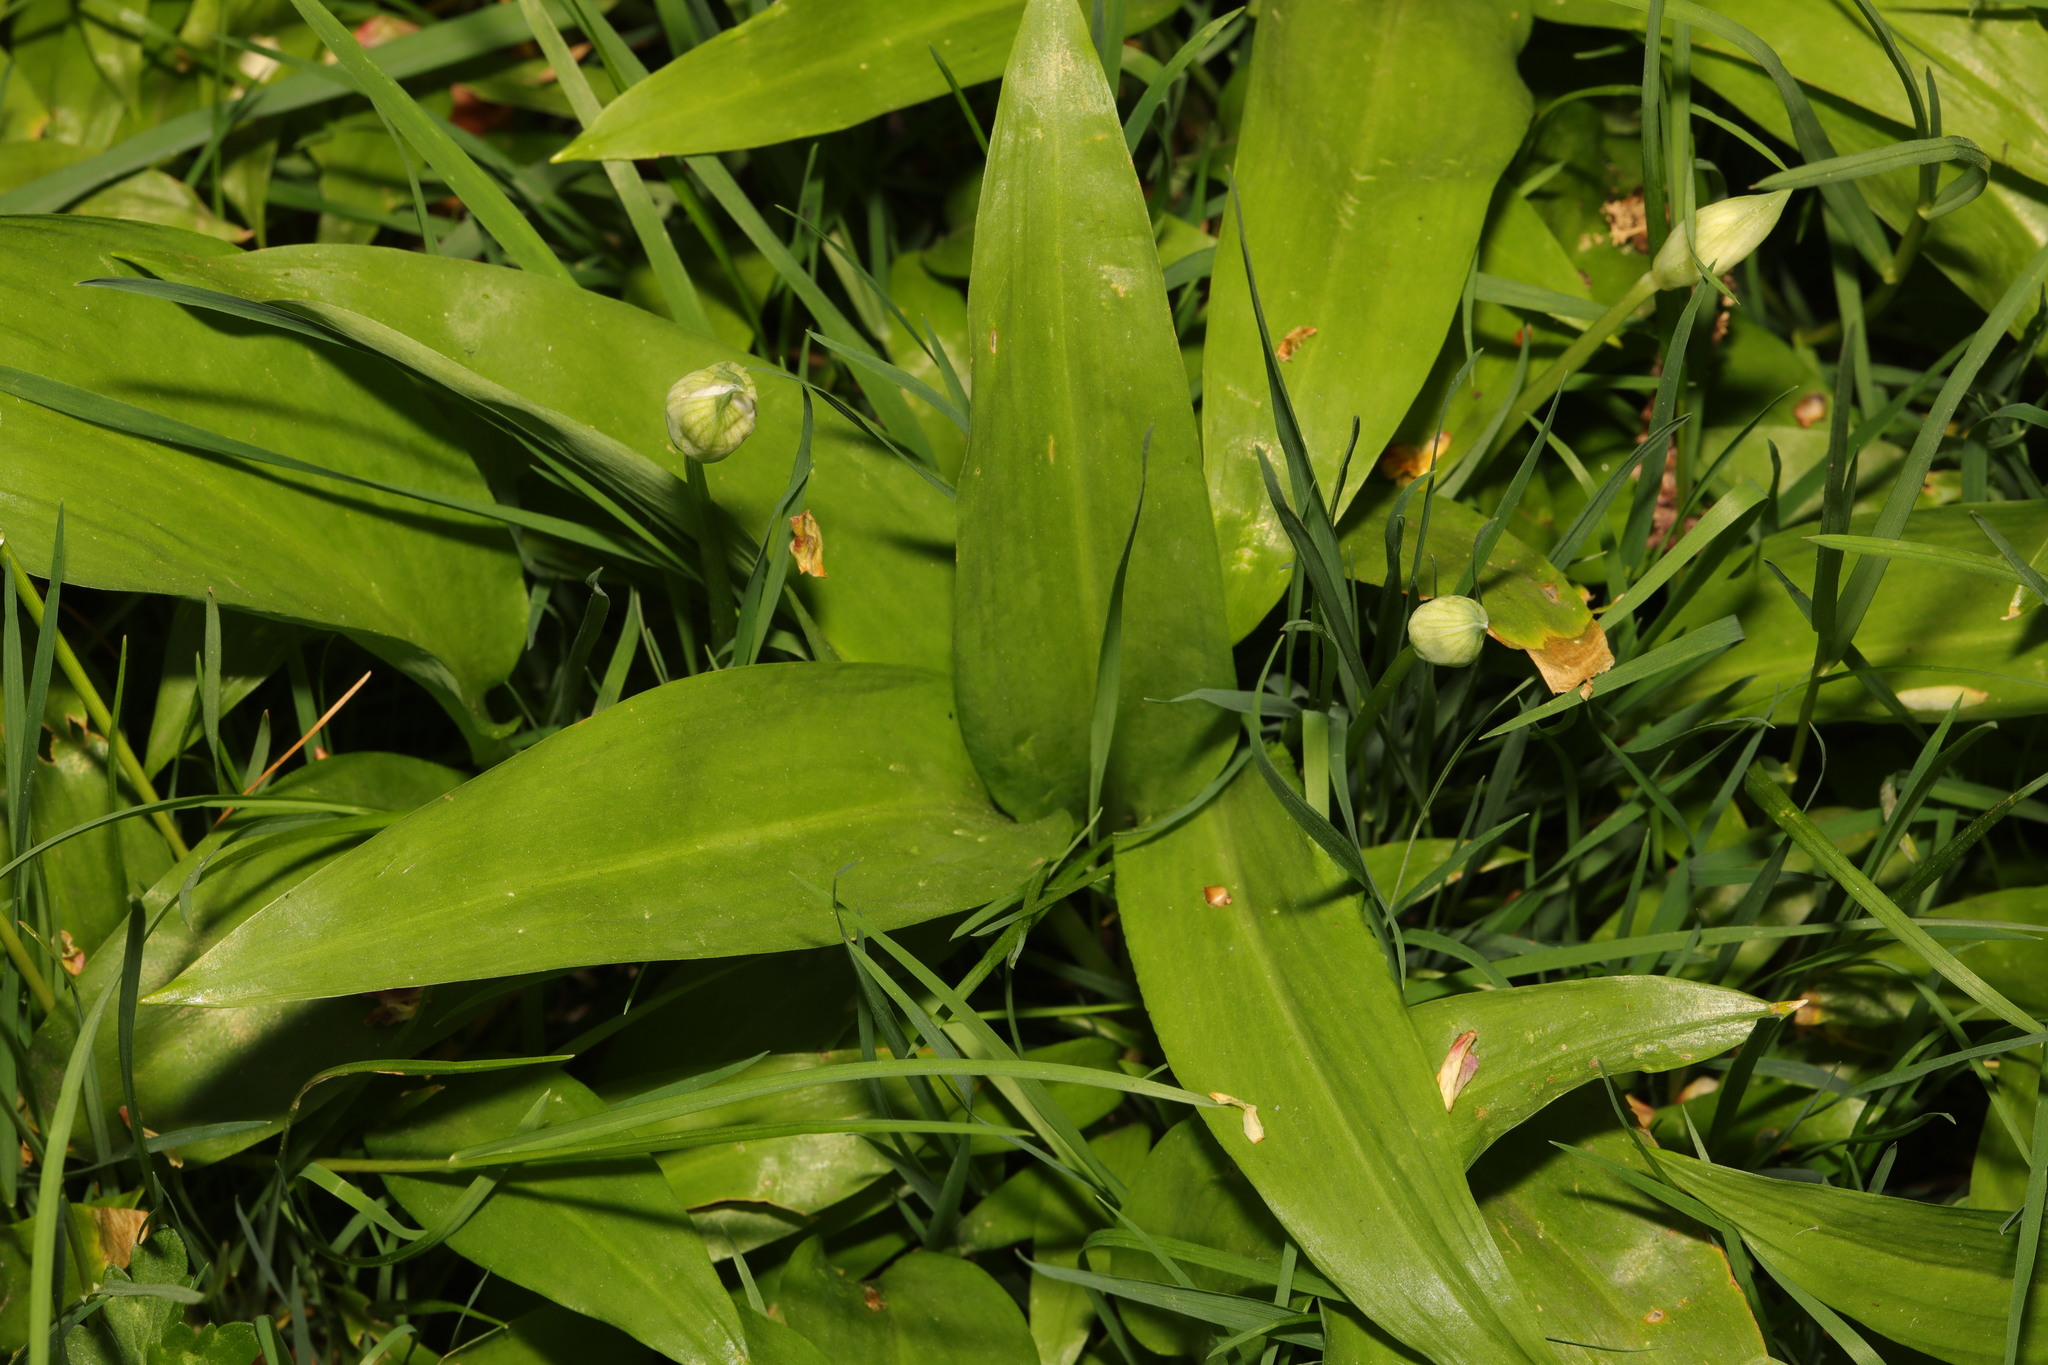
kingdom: Plantae
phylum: Tracheophyta
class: Liliopsida
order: Asparagales
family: Amaryllidaceae
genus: Allium
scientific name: Allium ursinum
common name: Ramsons
